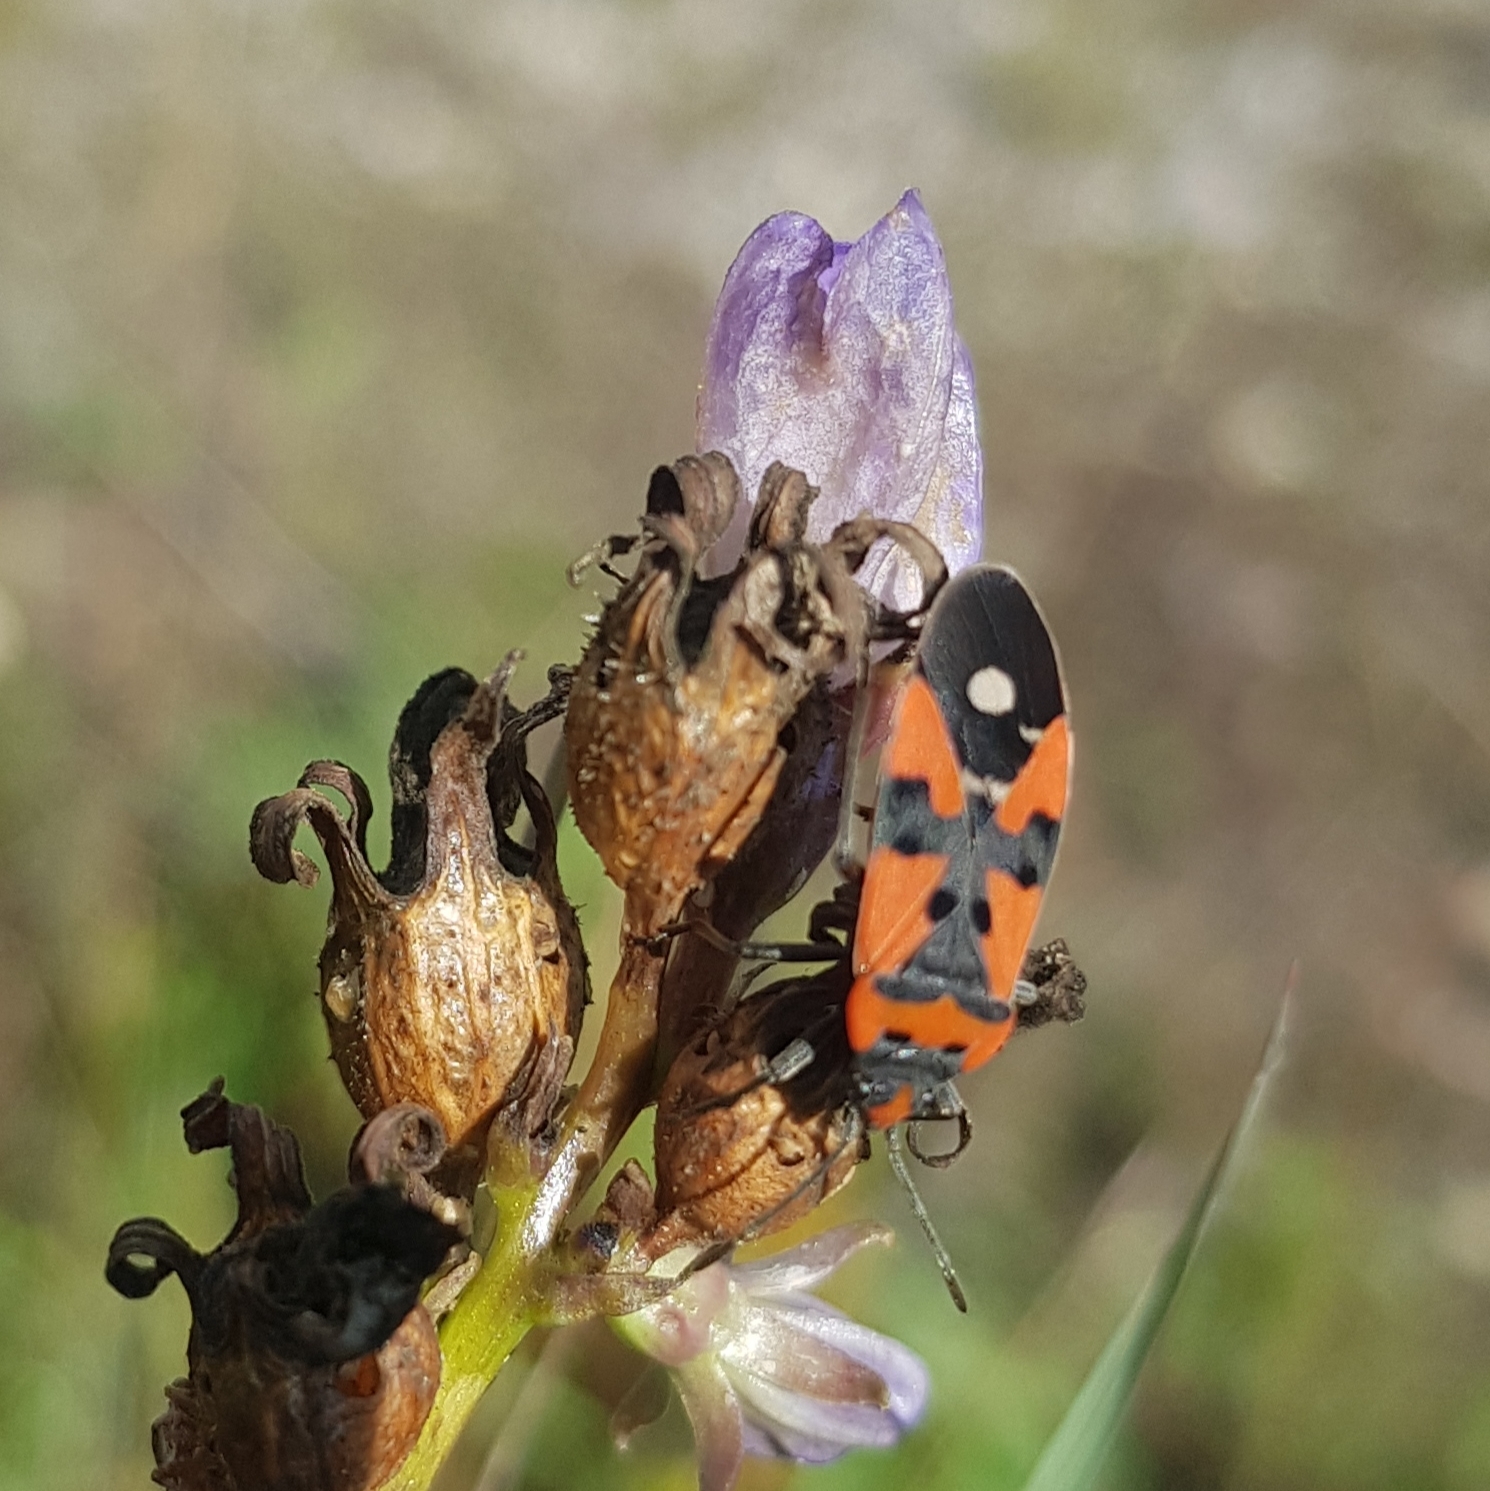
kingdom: Animalia
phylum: Arthropoda
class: Insecta
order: Hemiptera
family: Lygaeidae
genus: Lygaeus
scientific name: Lygaeus equestris
